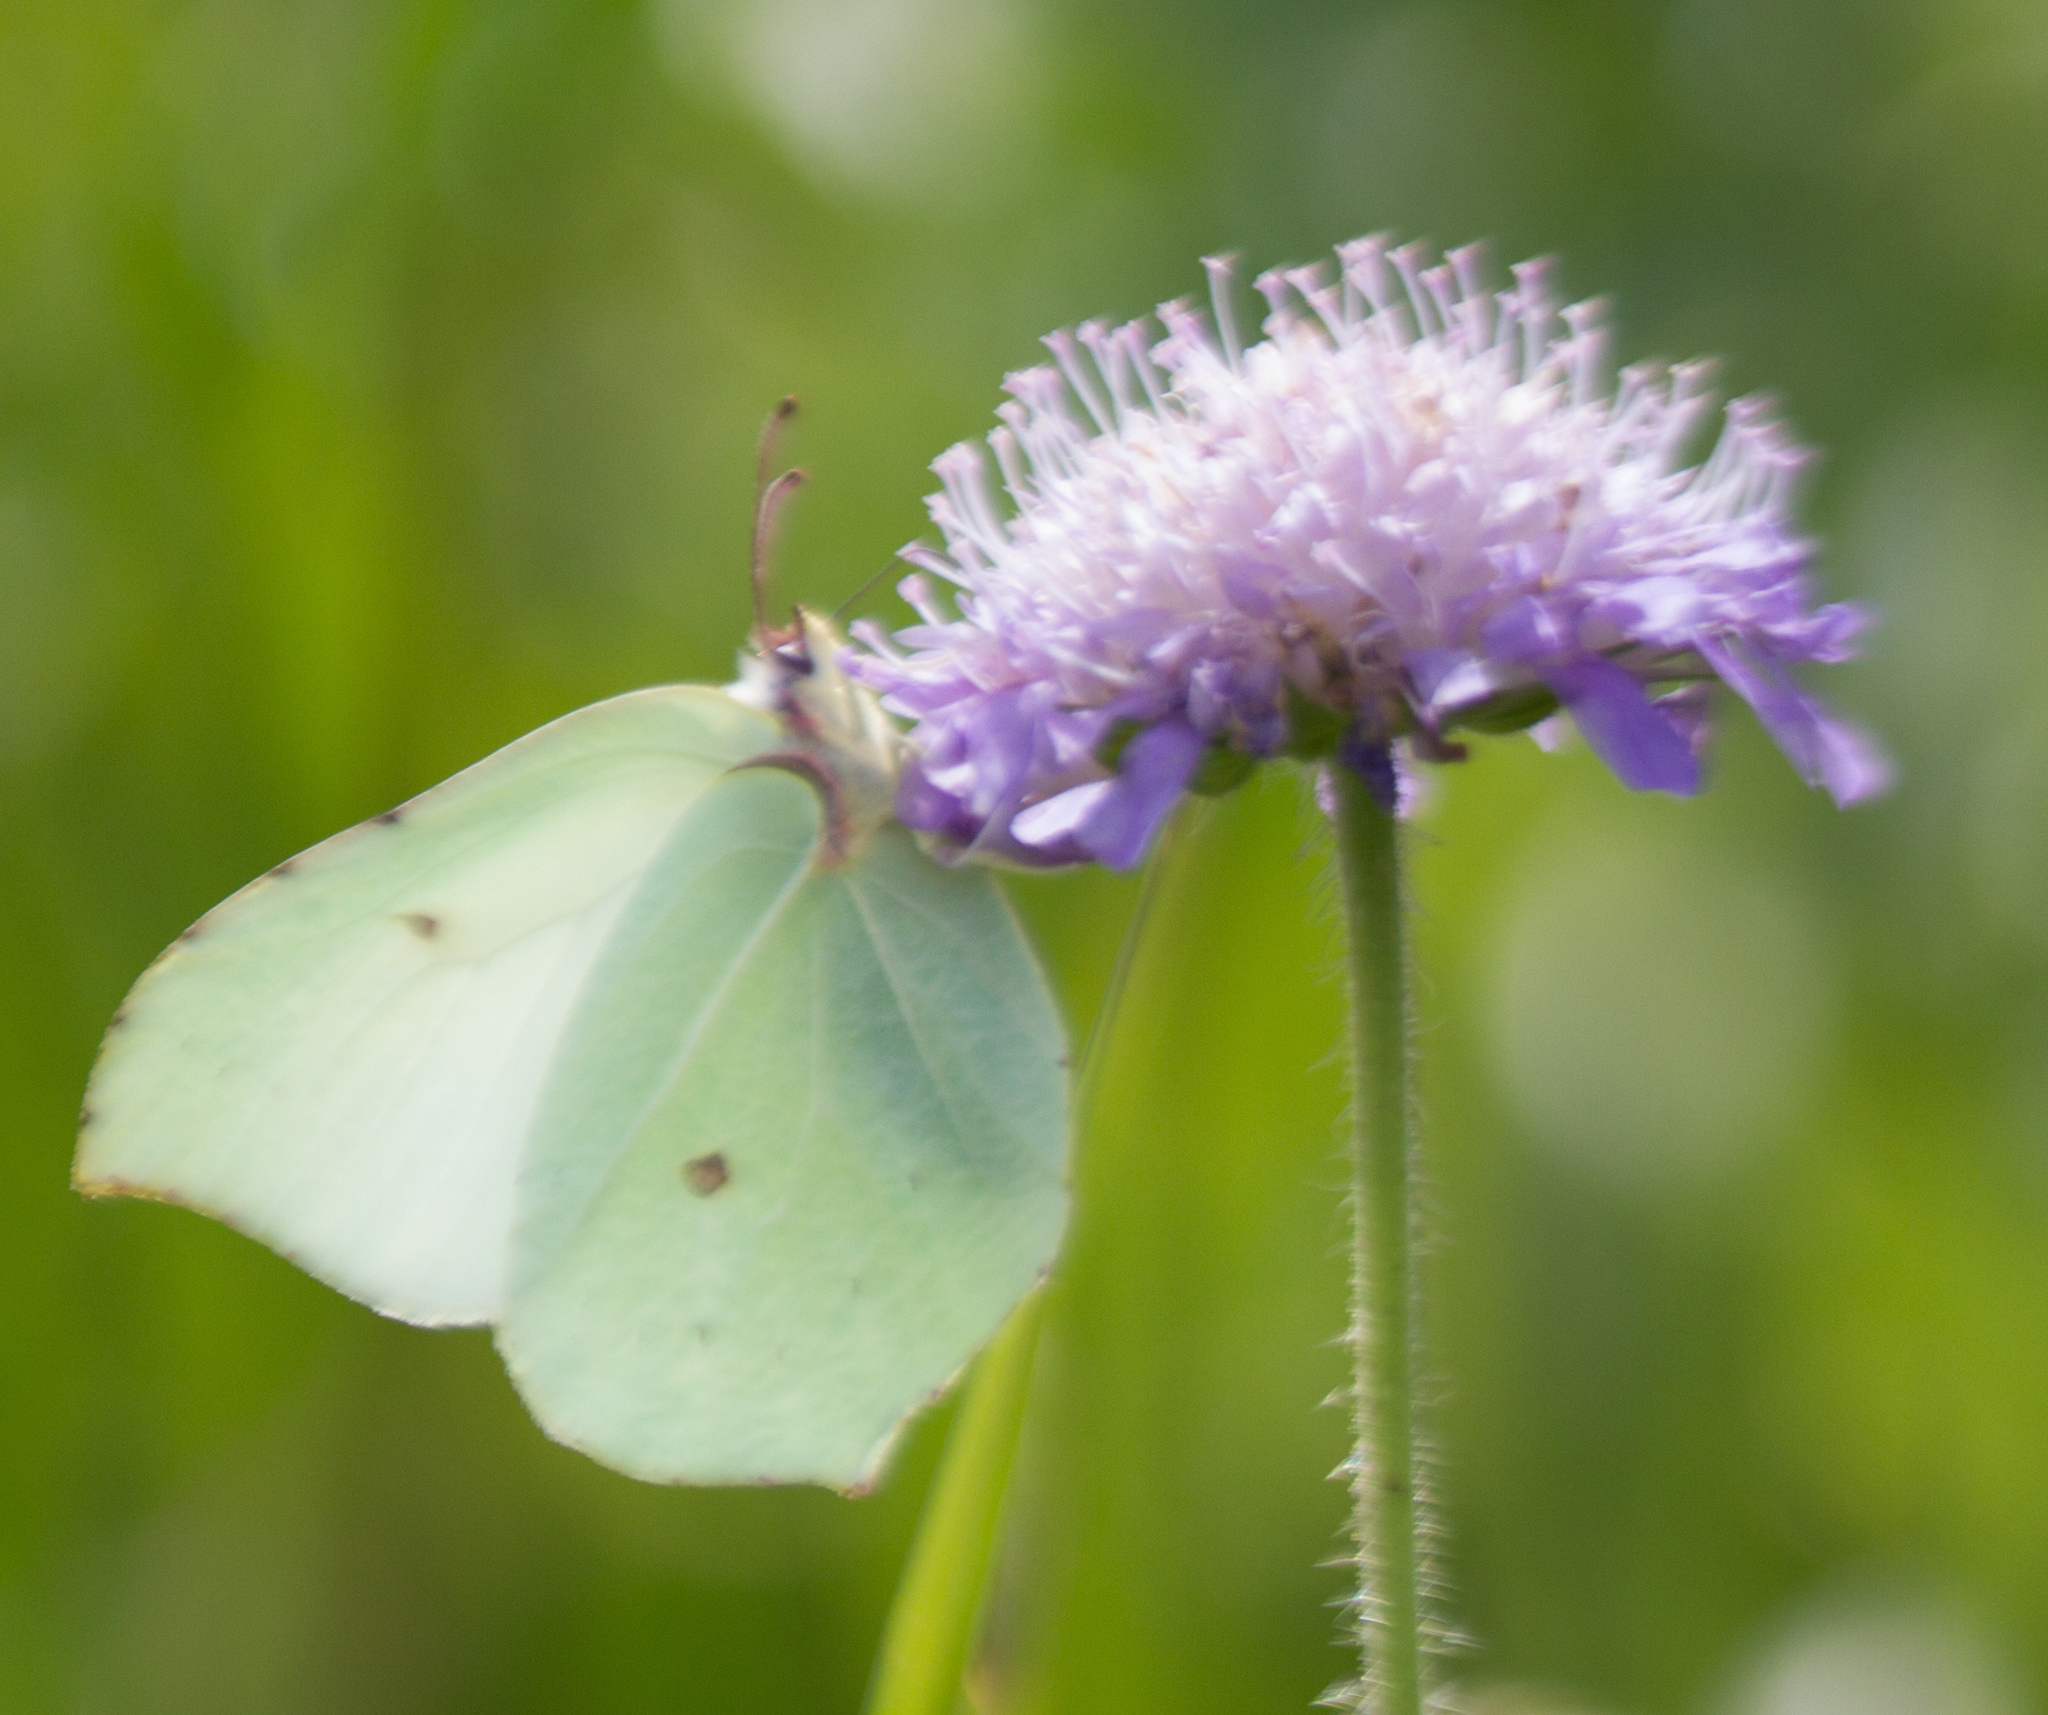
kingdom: Animalia
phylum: Arthropoda
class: Insecta
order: Lepidoptera
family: Pieridae
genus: Gonepteryx
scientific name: Gonepteryx rhamni
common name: Brimstone
